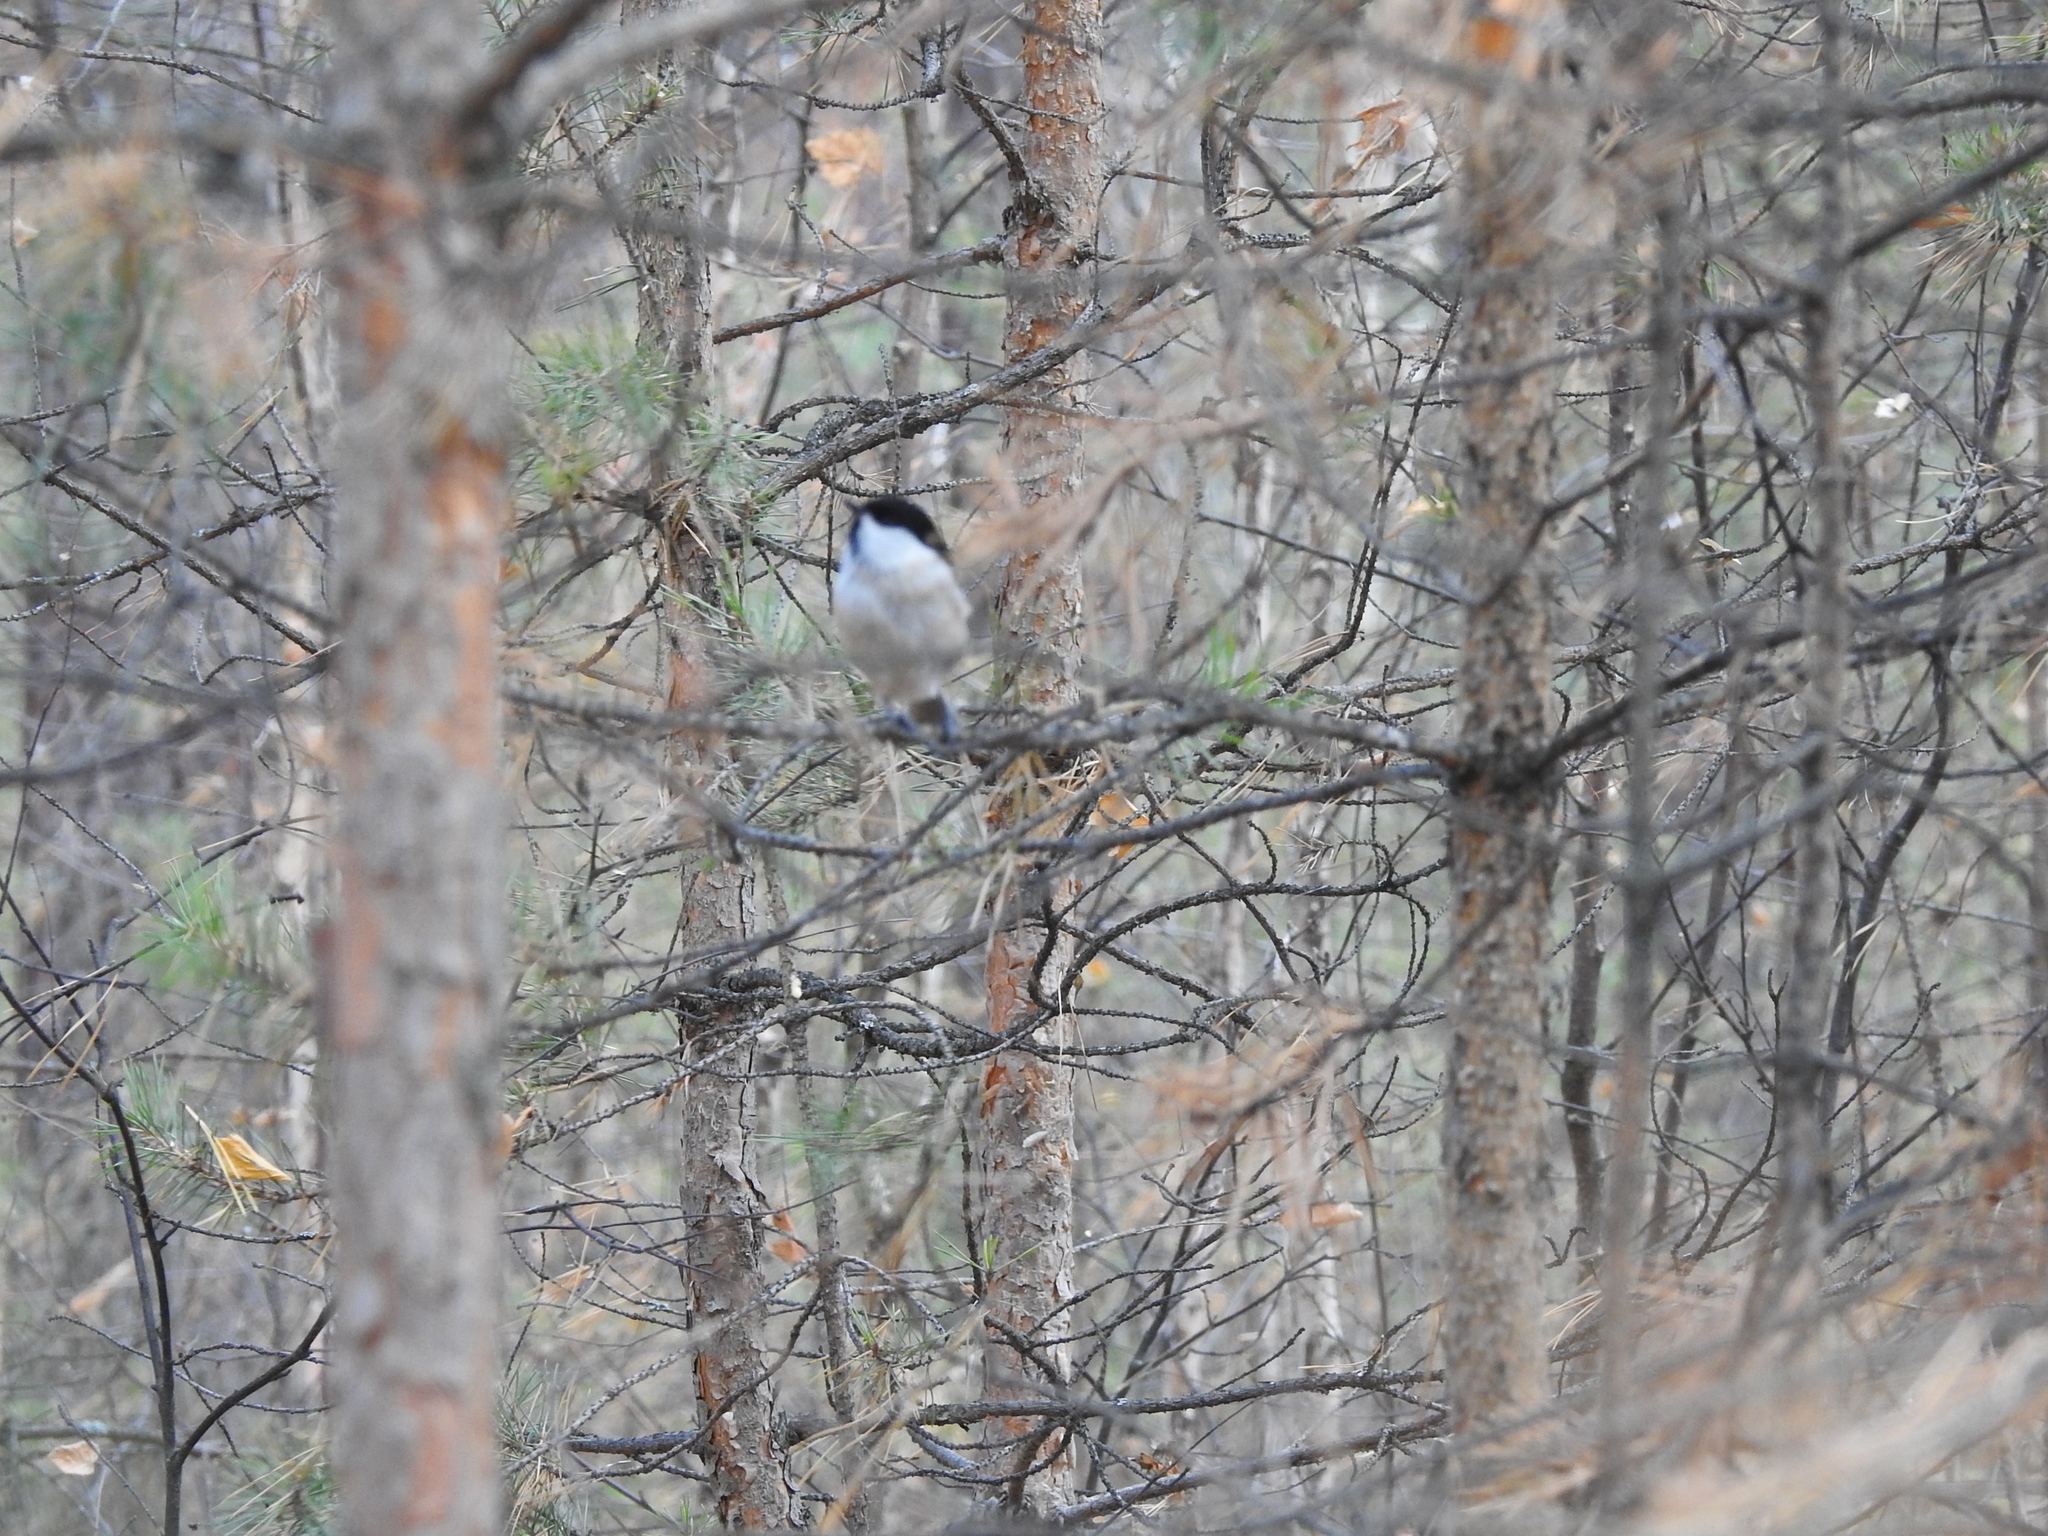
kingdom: Animalia
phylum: Chordata
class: Aves
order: Passeriformes
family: Paridae
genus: Poecile
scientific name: Poecile montanus
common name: Willow tit
